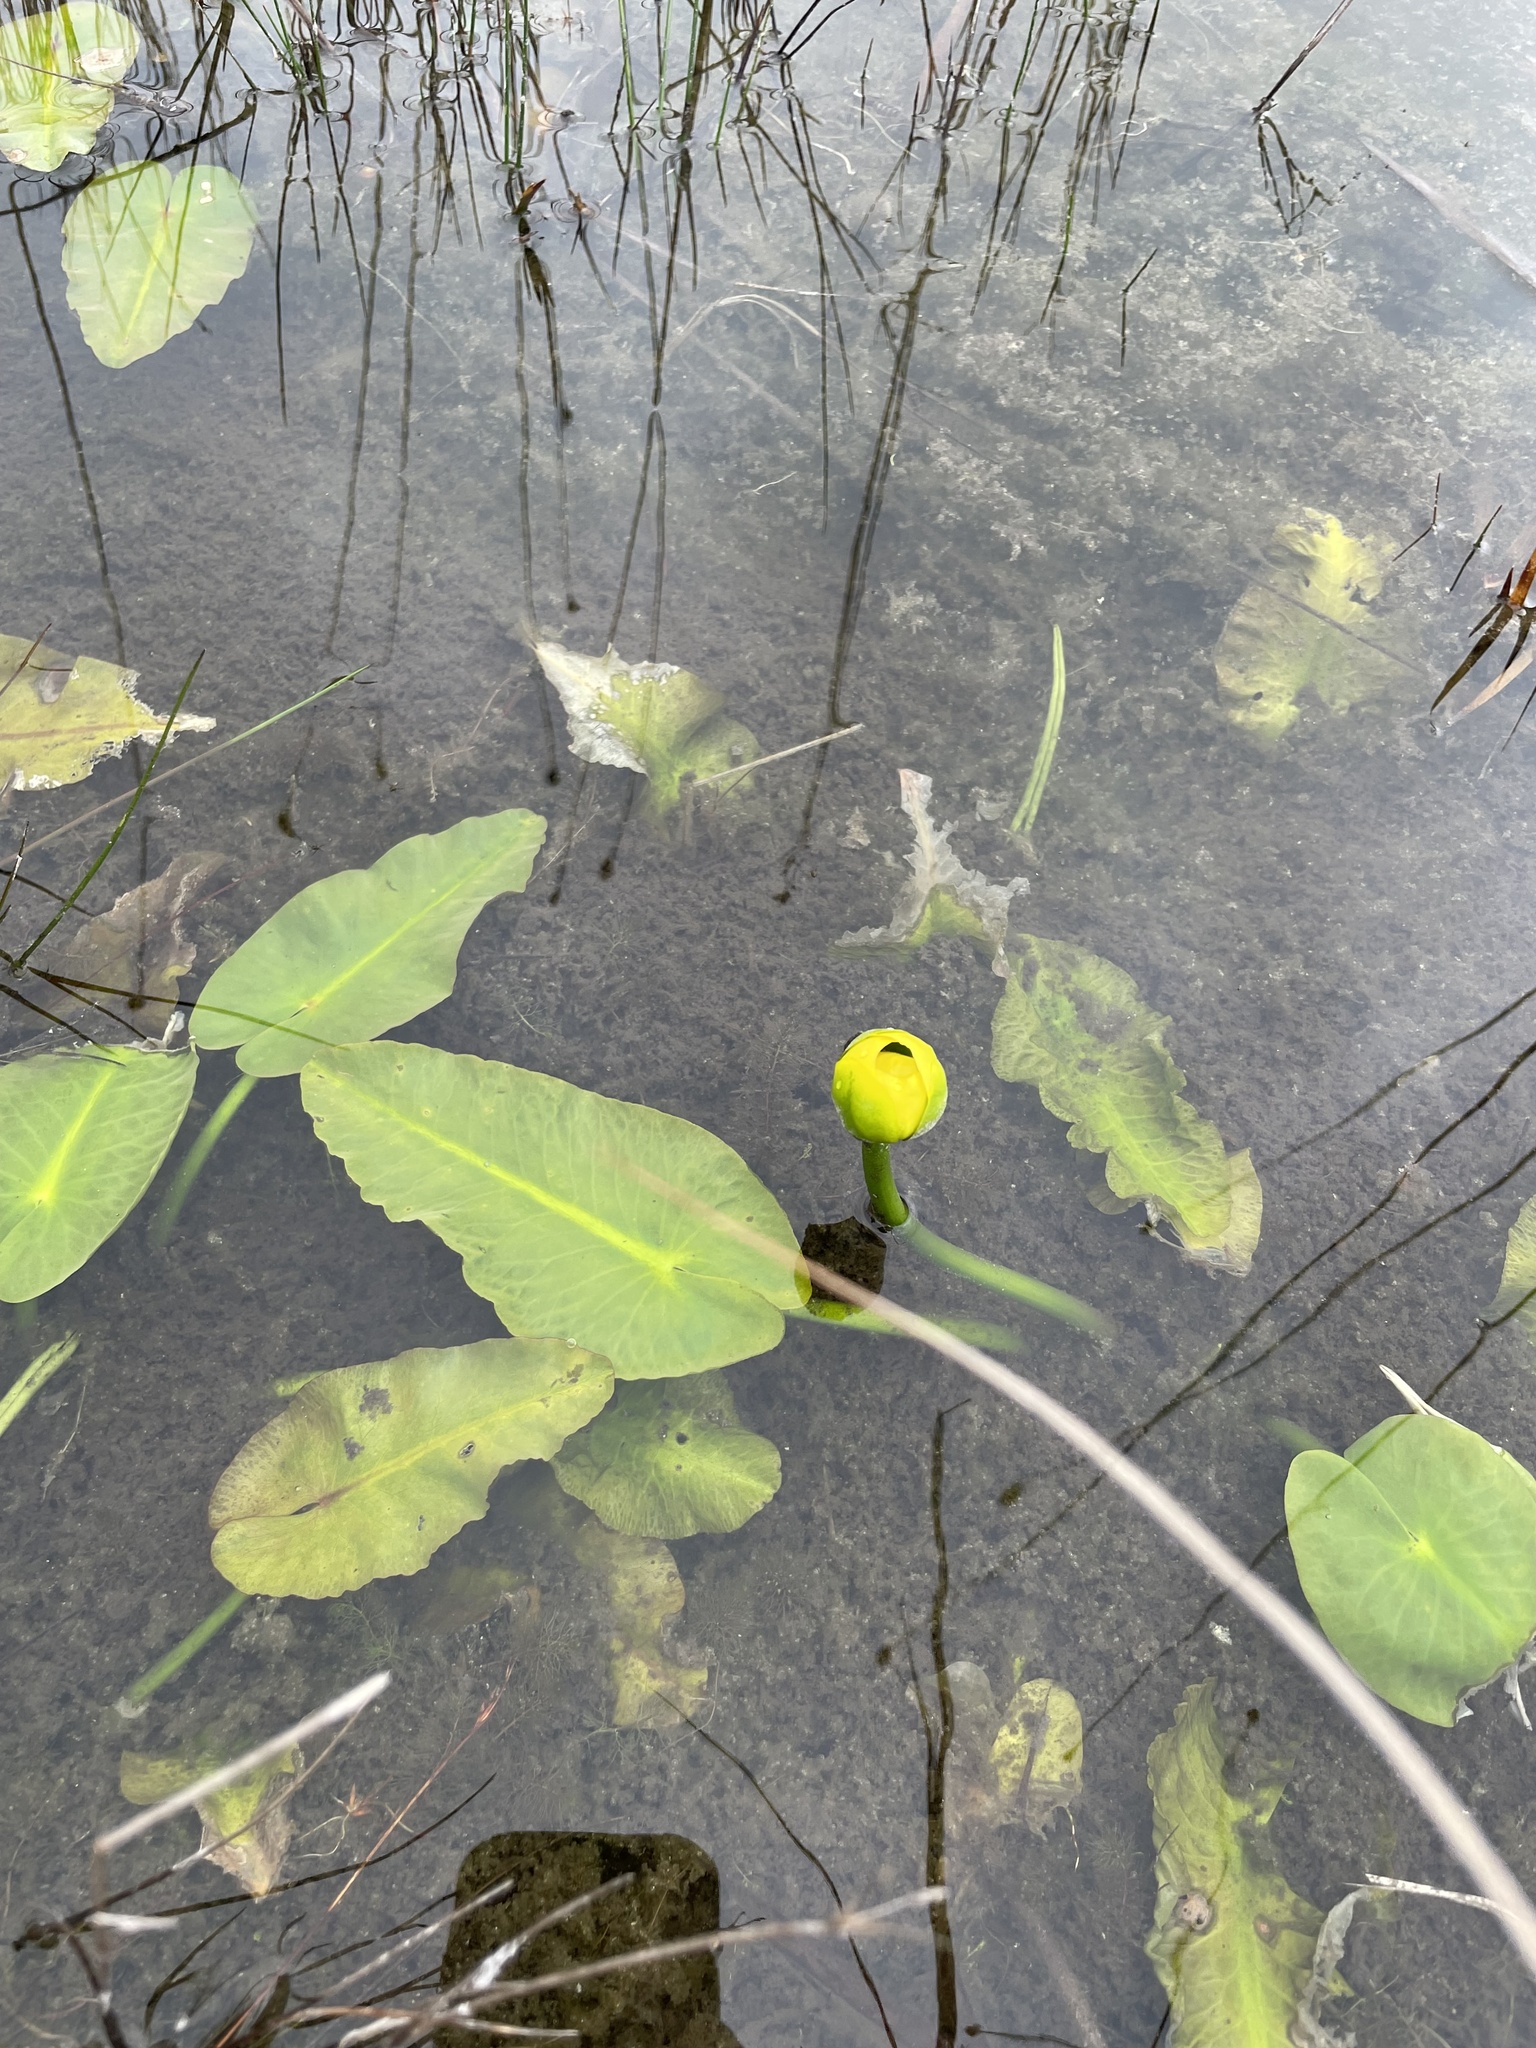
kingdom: Plantae
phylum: Tracheophyta
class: Magnoliopsida
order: Nymphaeales
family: Nymphaeaceae
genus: Nuphar
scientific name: Nuphar advena
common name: Spatter-dock
